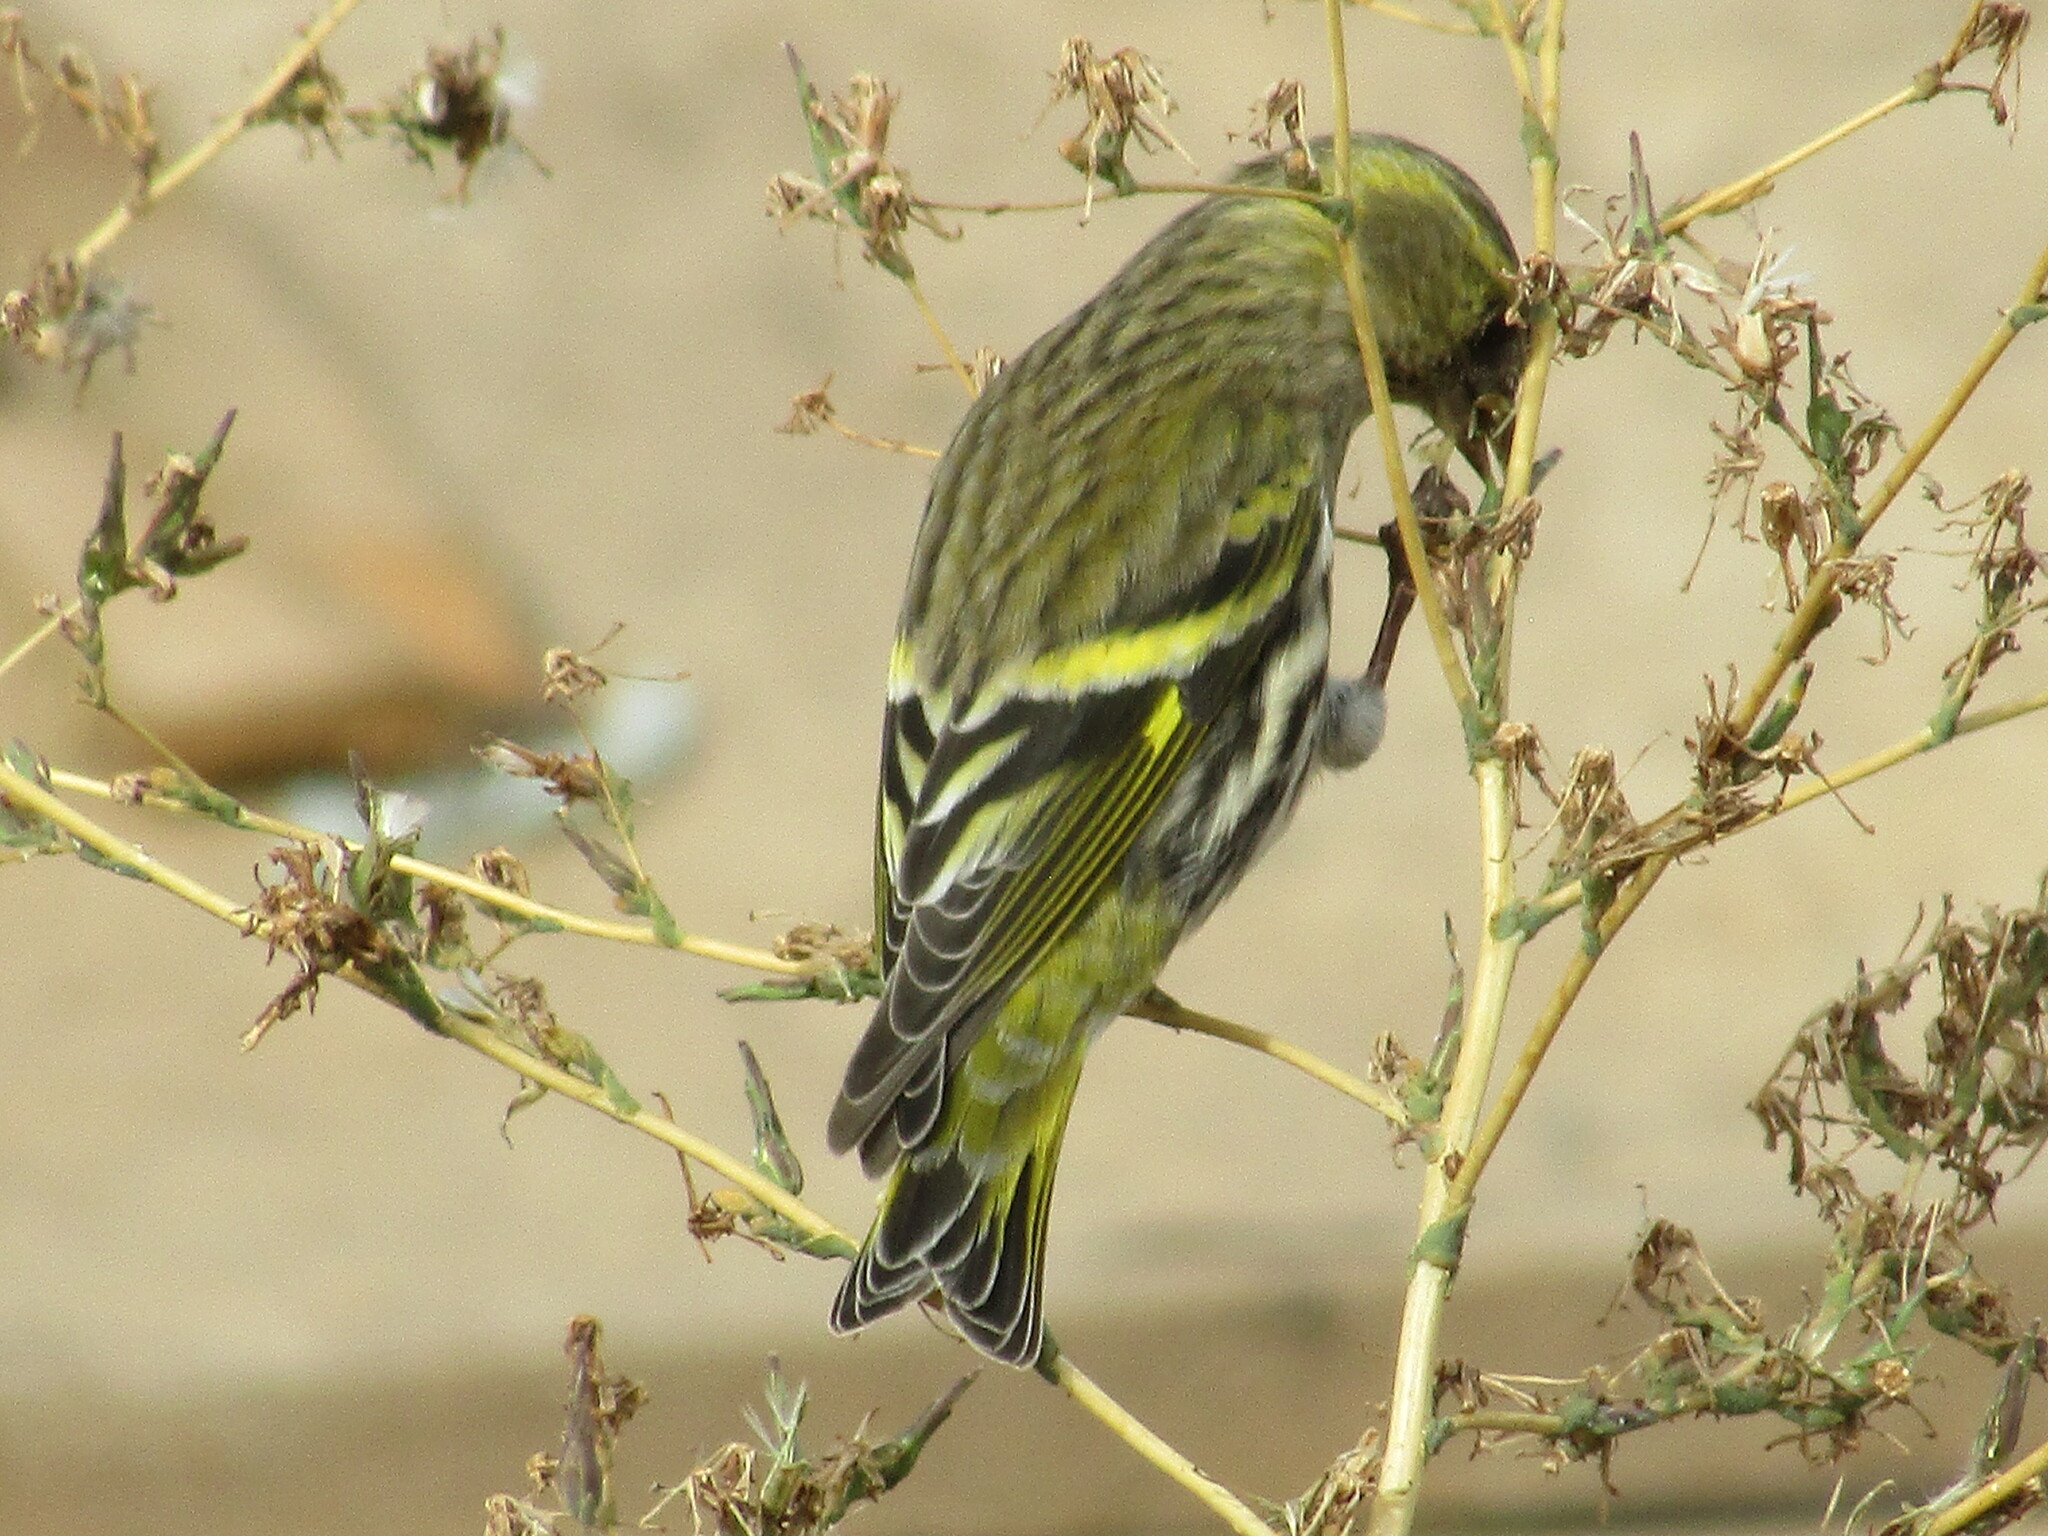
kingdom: Animalia
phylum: Chordata
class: Aves
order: Passeriformes
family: Fringillidae
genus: Spinus
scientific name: Spinus spinus
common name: Eurasian siskin
